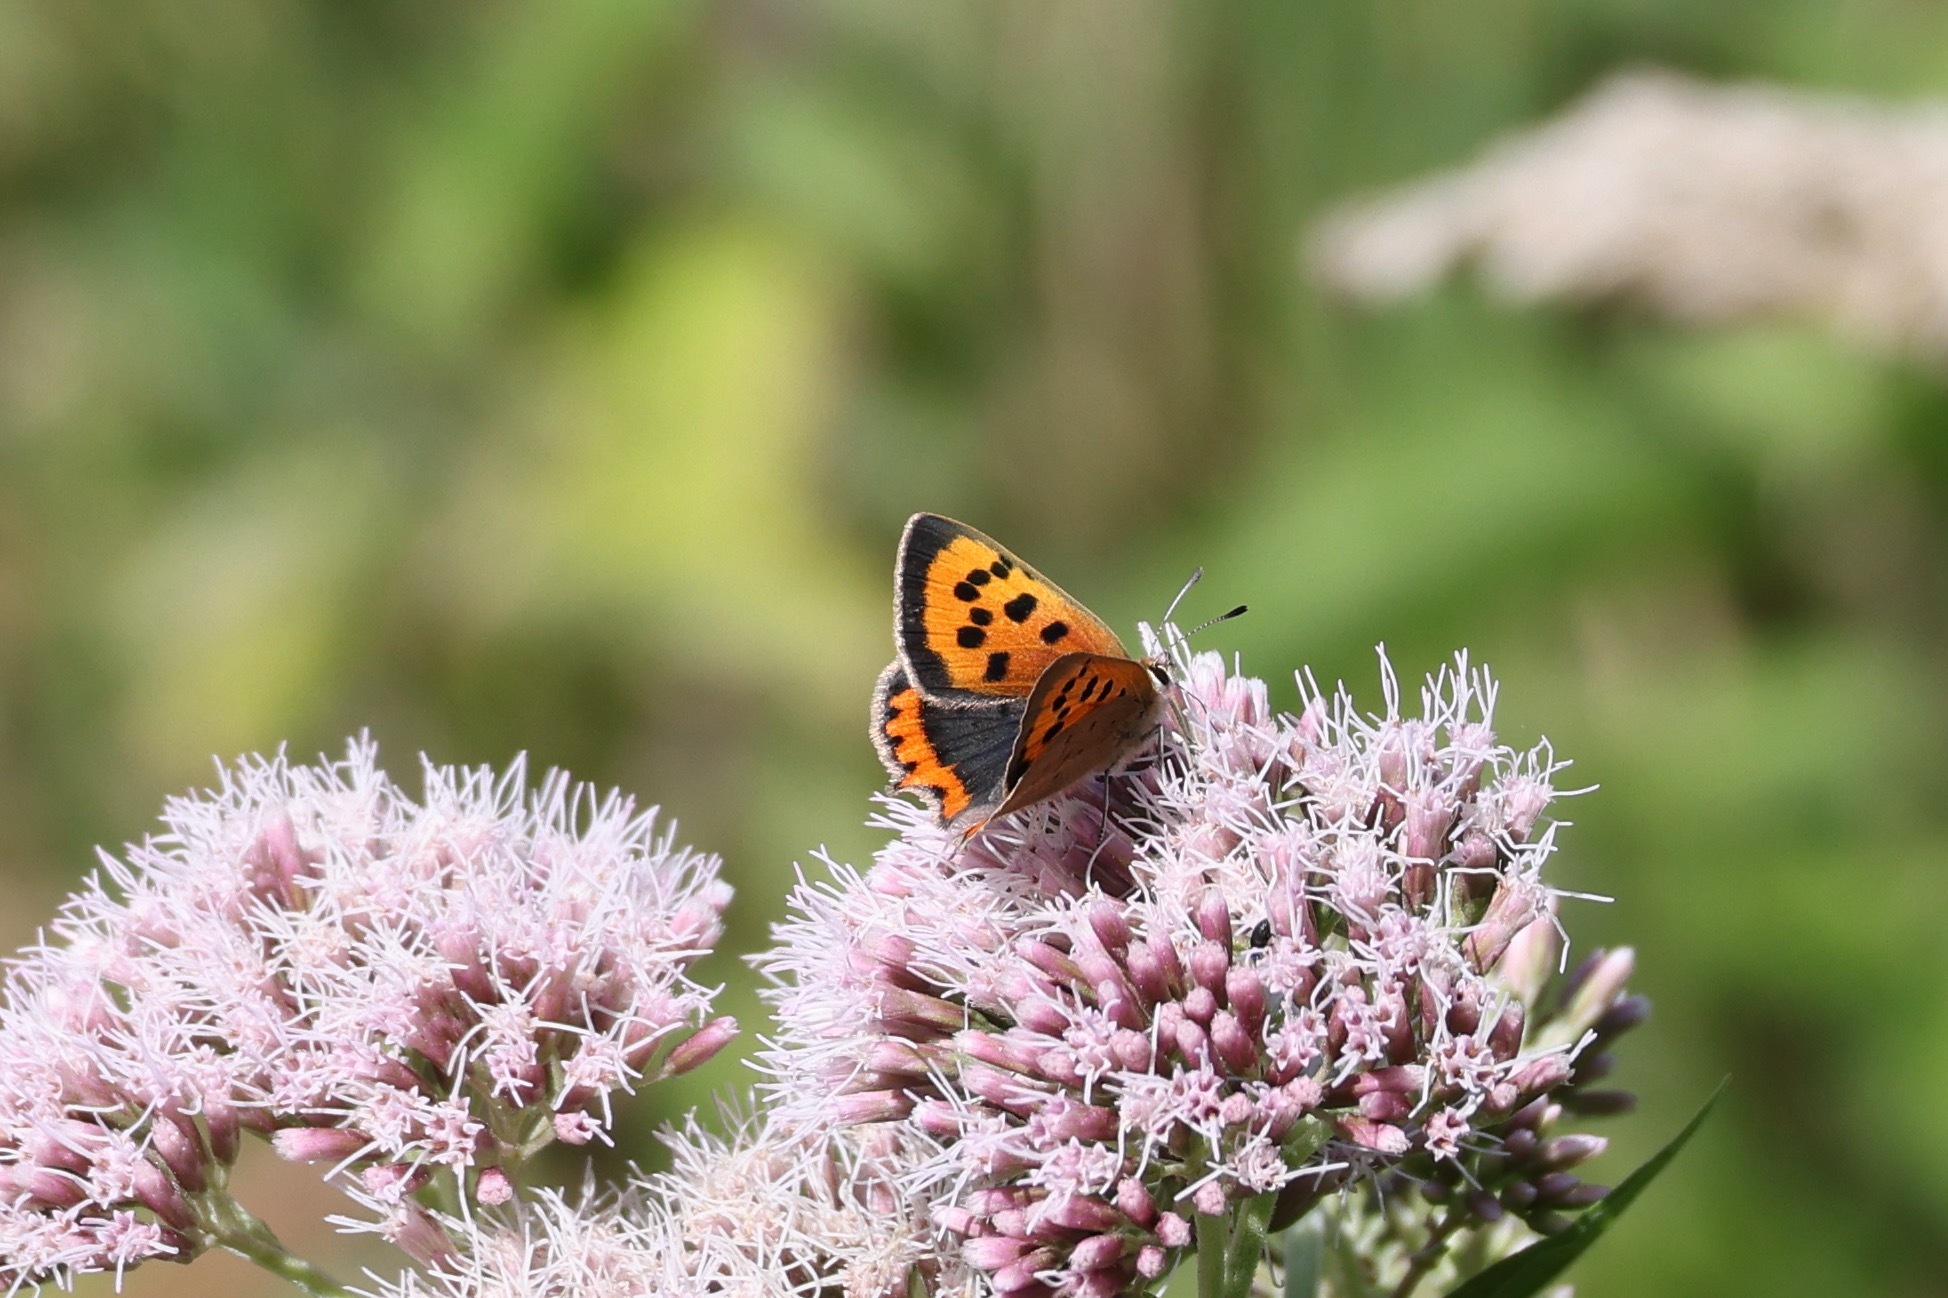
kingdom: Animalia
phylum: Arthropoda
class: Insecta
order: Lepidoptera
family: Lycaenidae
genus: Lycaena
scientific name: Lycaena phlaeas
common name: Small copper
